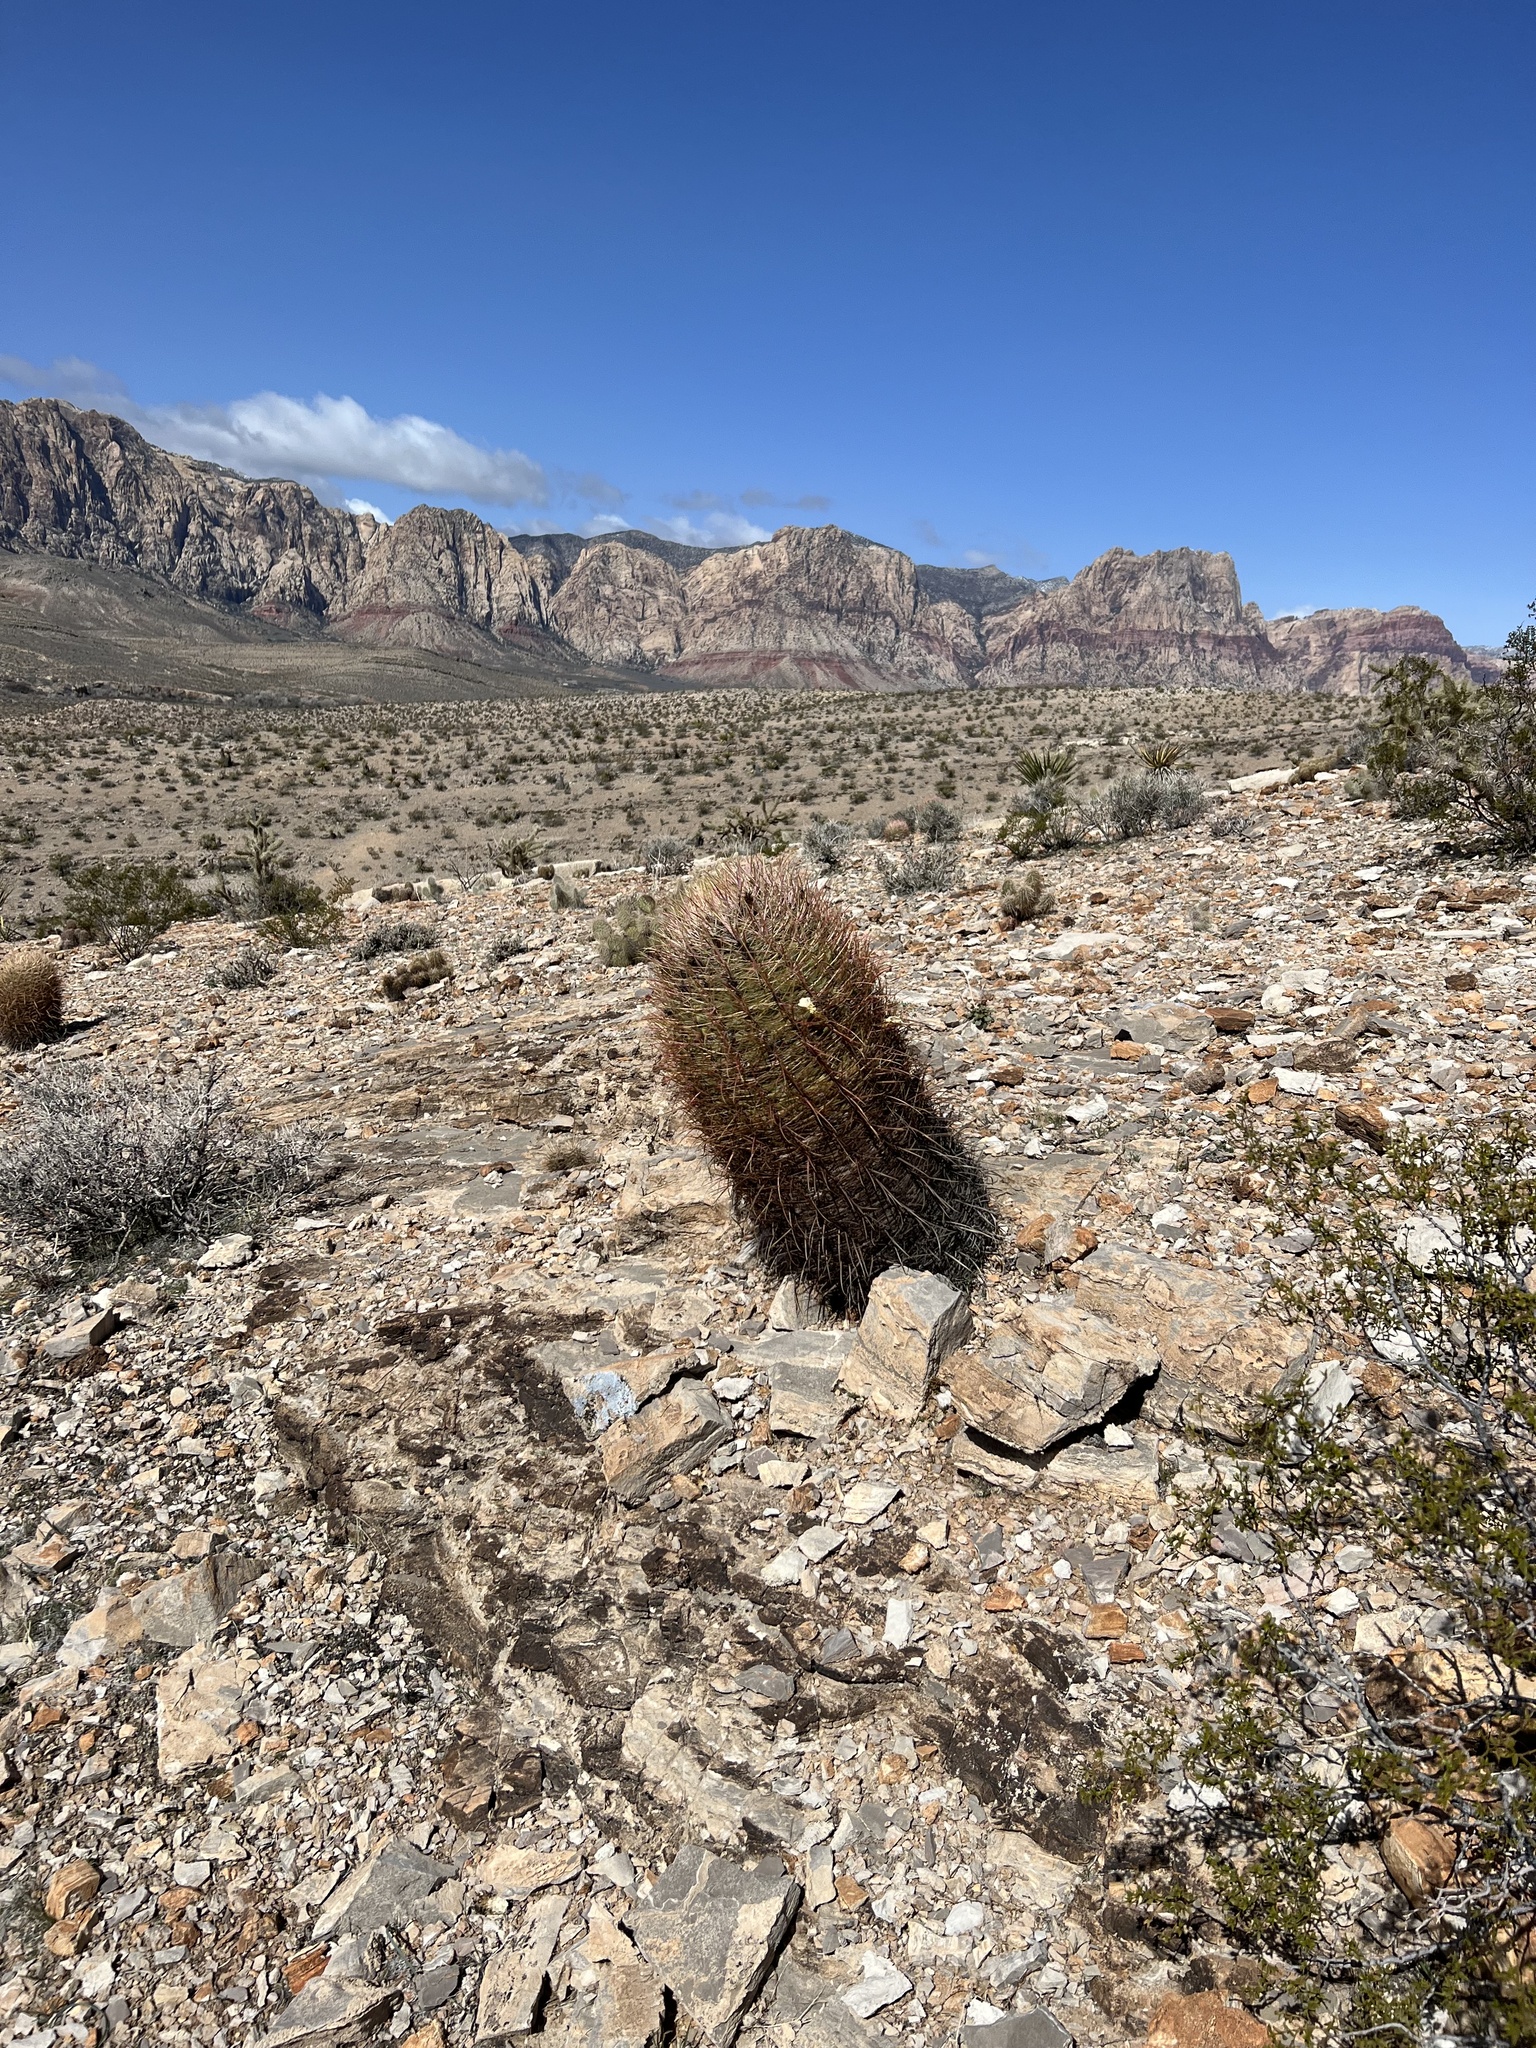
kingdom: Plantae
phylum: Tracheophyta
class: Magnoliopsida
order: Caryophyllales
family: Cactaceae
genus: Ferocactus
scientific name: Ferocactus cylindraceus
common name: California barrel cactus
